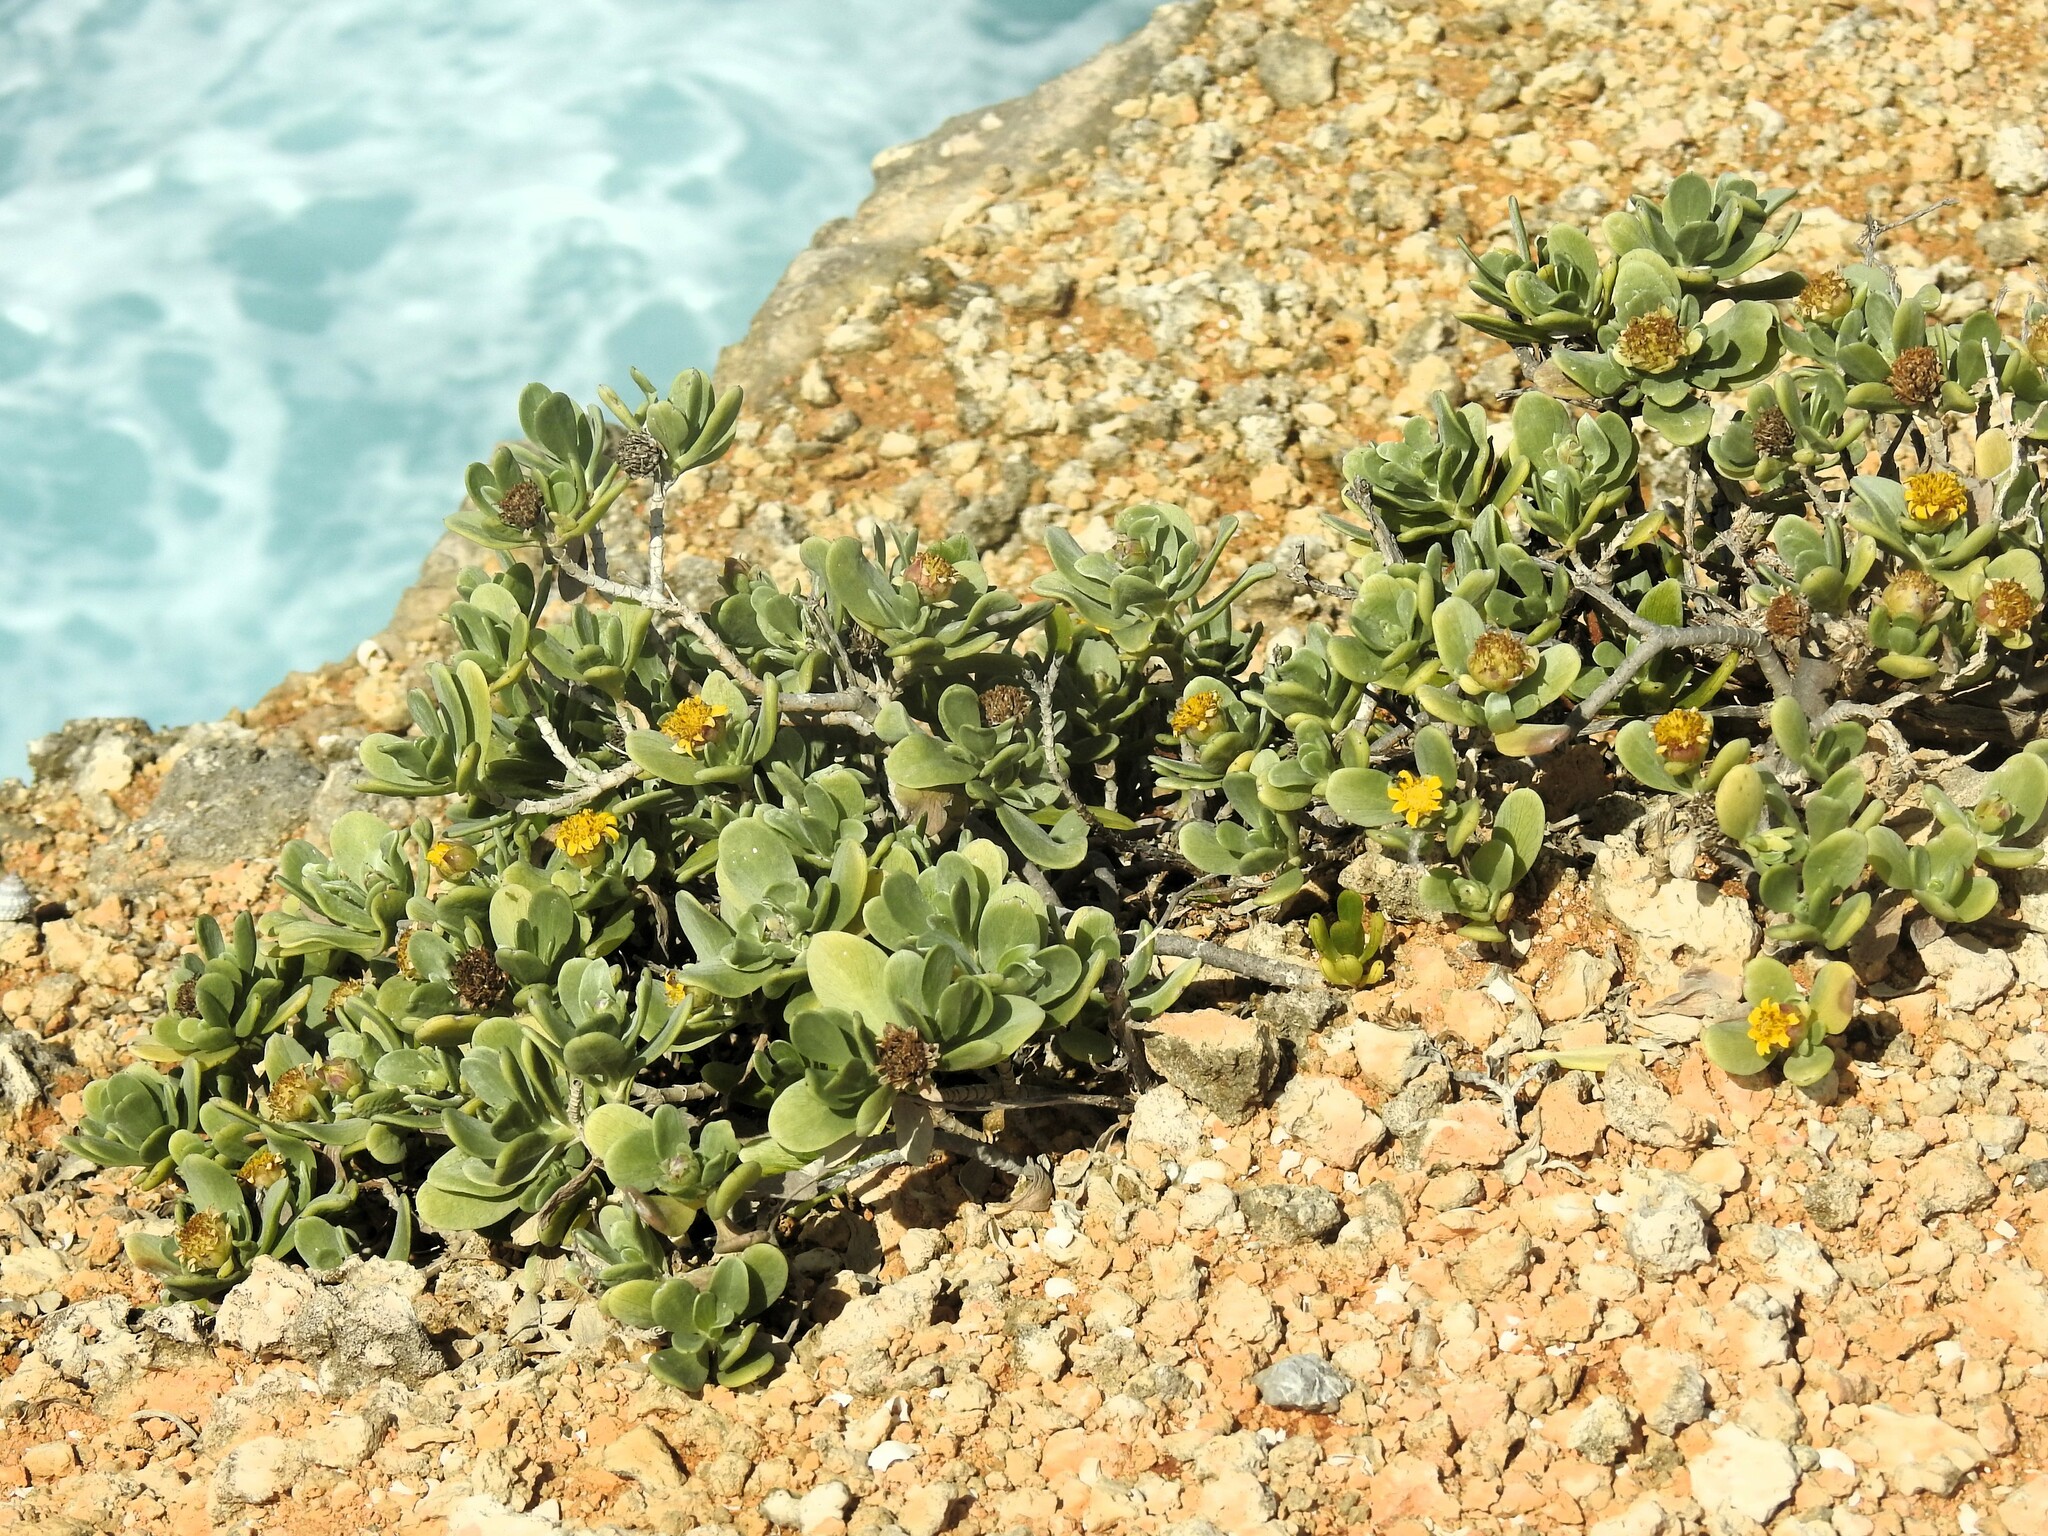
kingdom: Plantae
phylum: Tracheophyta
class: Magnoliopsida
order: Asterales
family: Asteraceae
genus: Borrichia
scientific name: Borrichia arborescens
